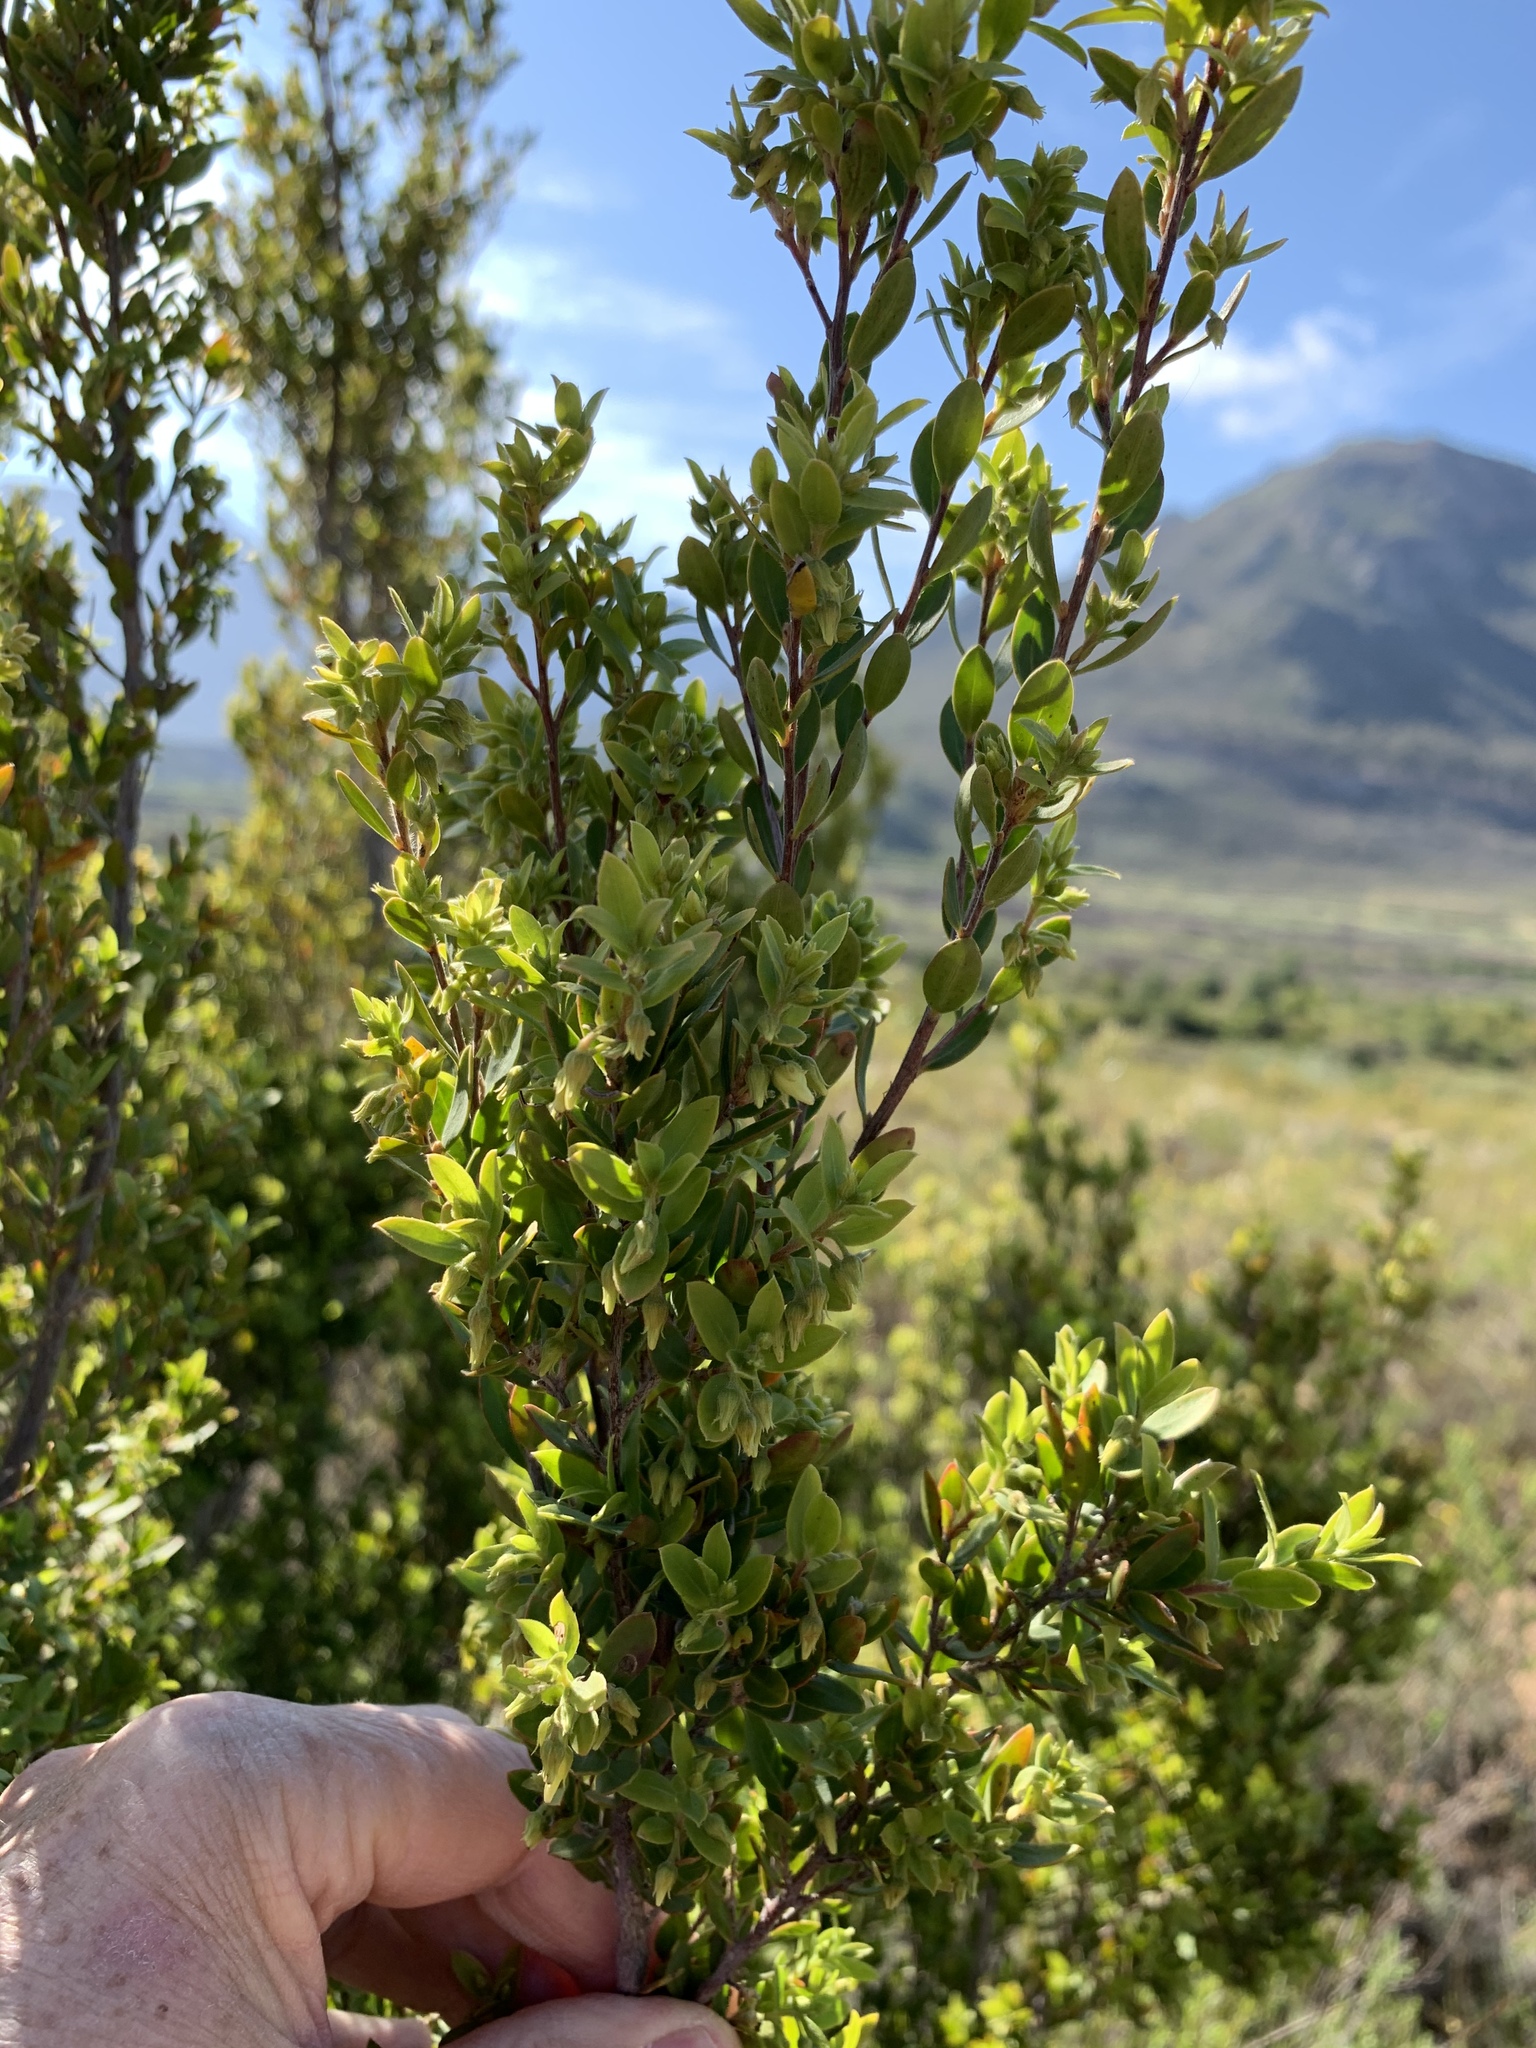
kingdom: Plantae
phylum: Tracheophyta
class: Magnoliopsida
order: Ericales
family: Ebenaceae
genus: Diospyros
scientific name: Diospyros glabra
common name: Fynbos star apple
